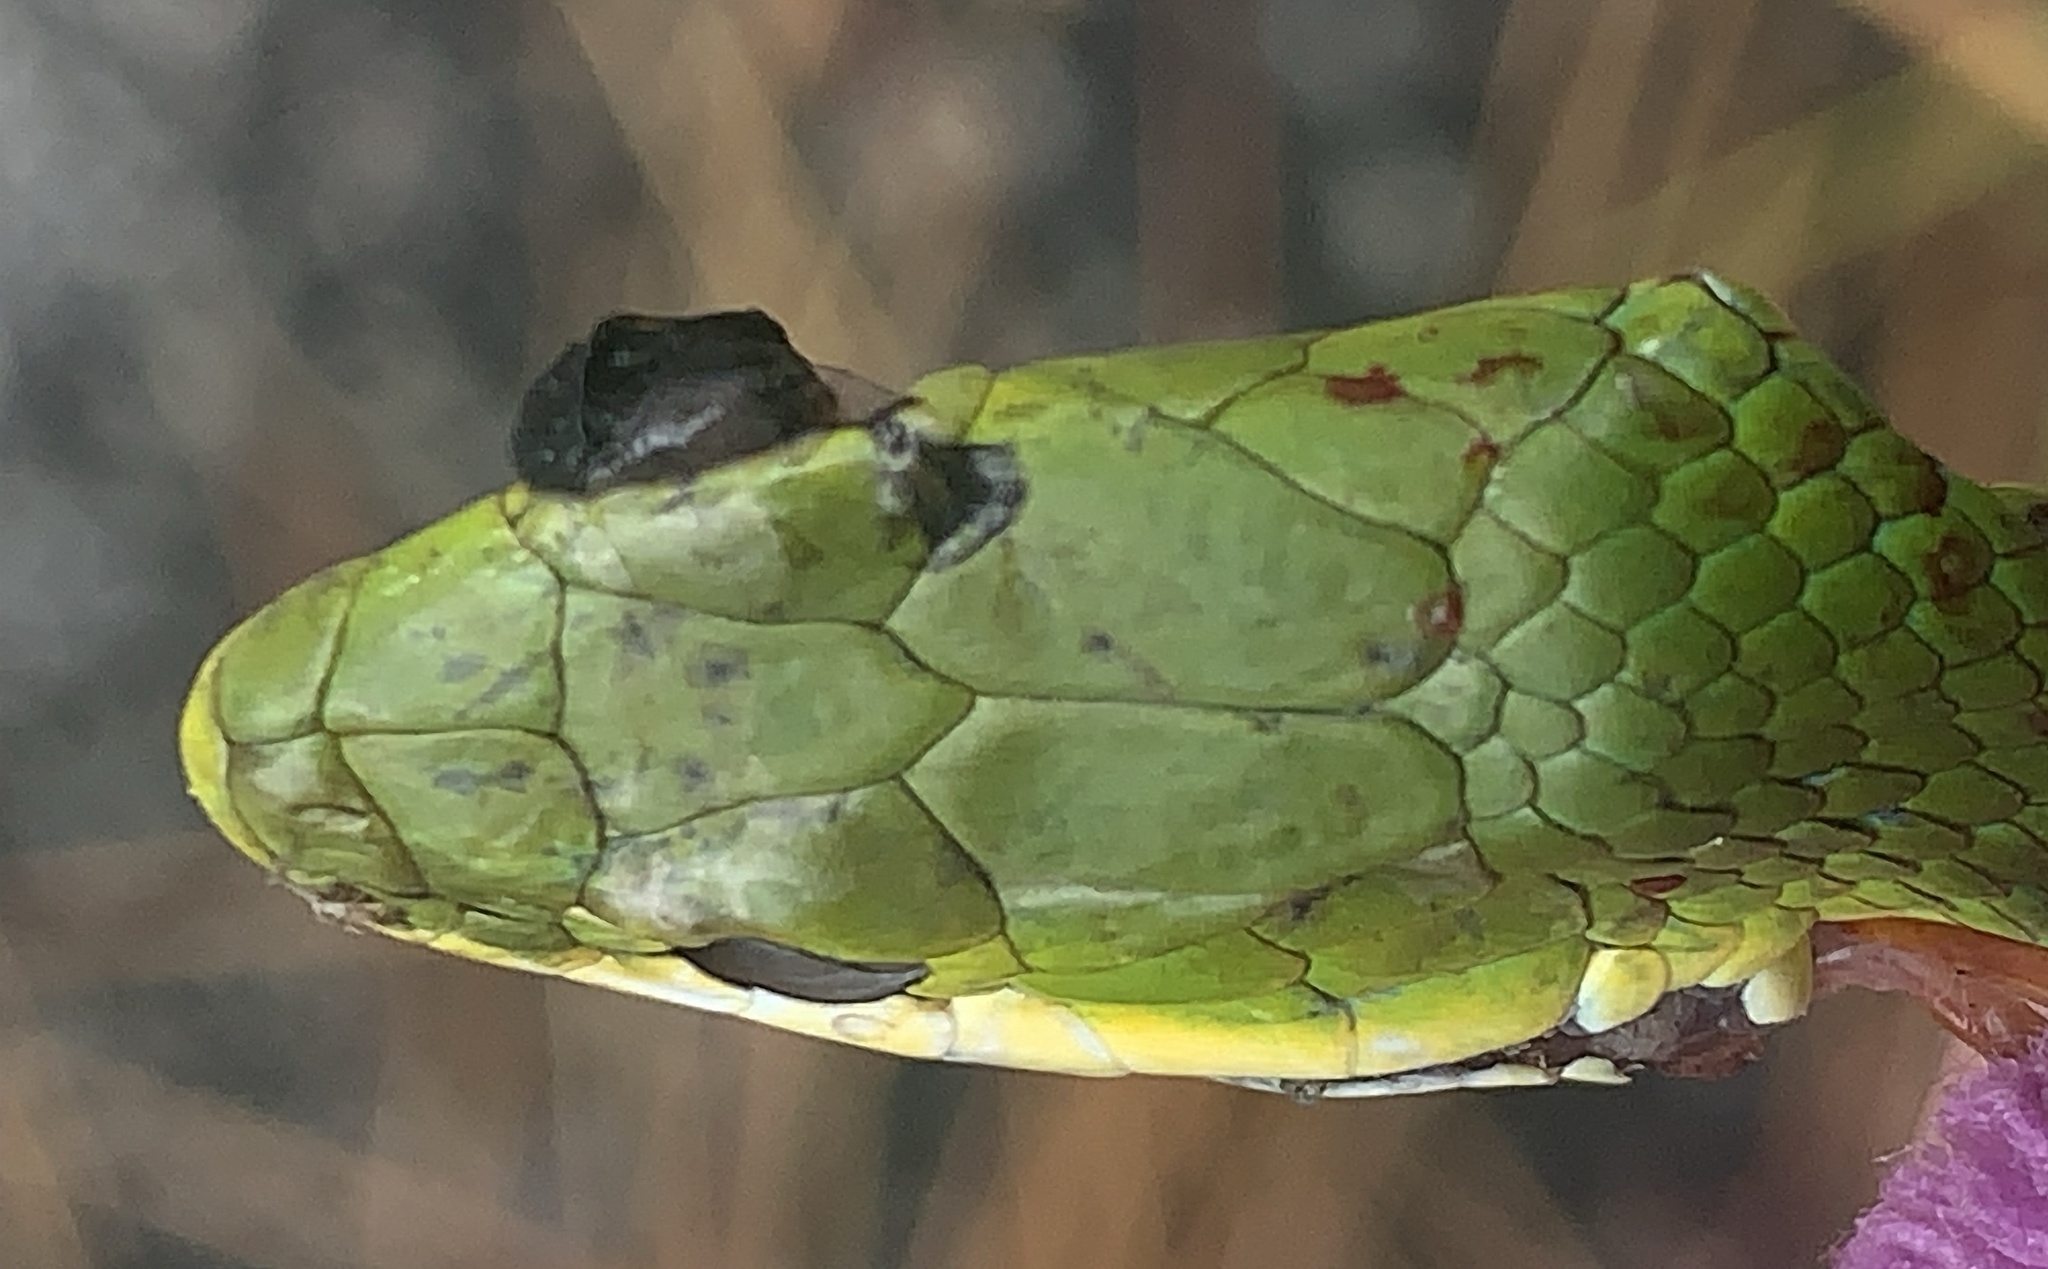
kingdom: Animalia
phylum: Chordata
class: Squamata
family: Colubridae
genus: Opheodrys
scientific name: Opheodrys aestivus
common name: Rough greensnake
